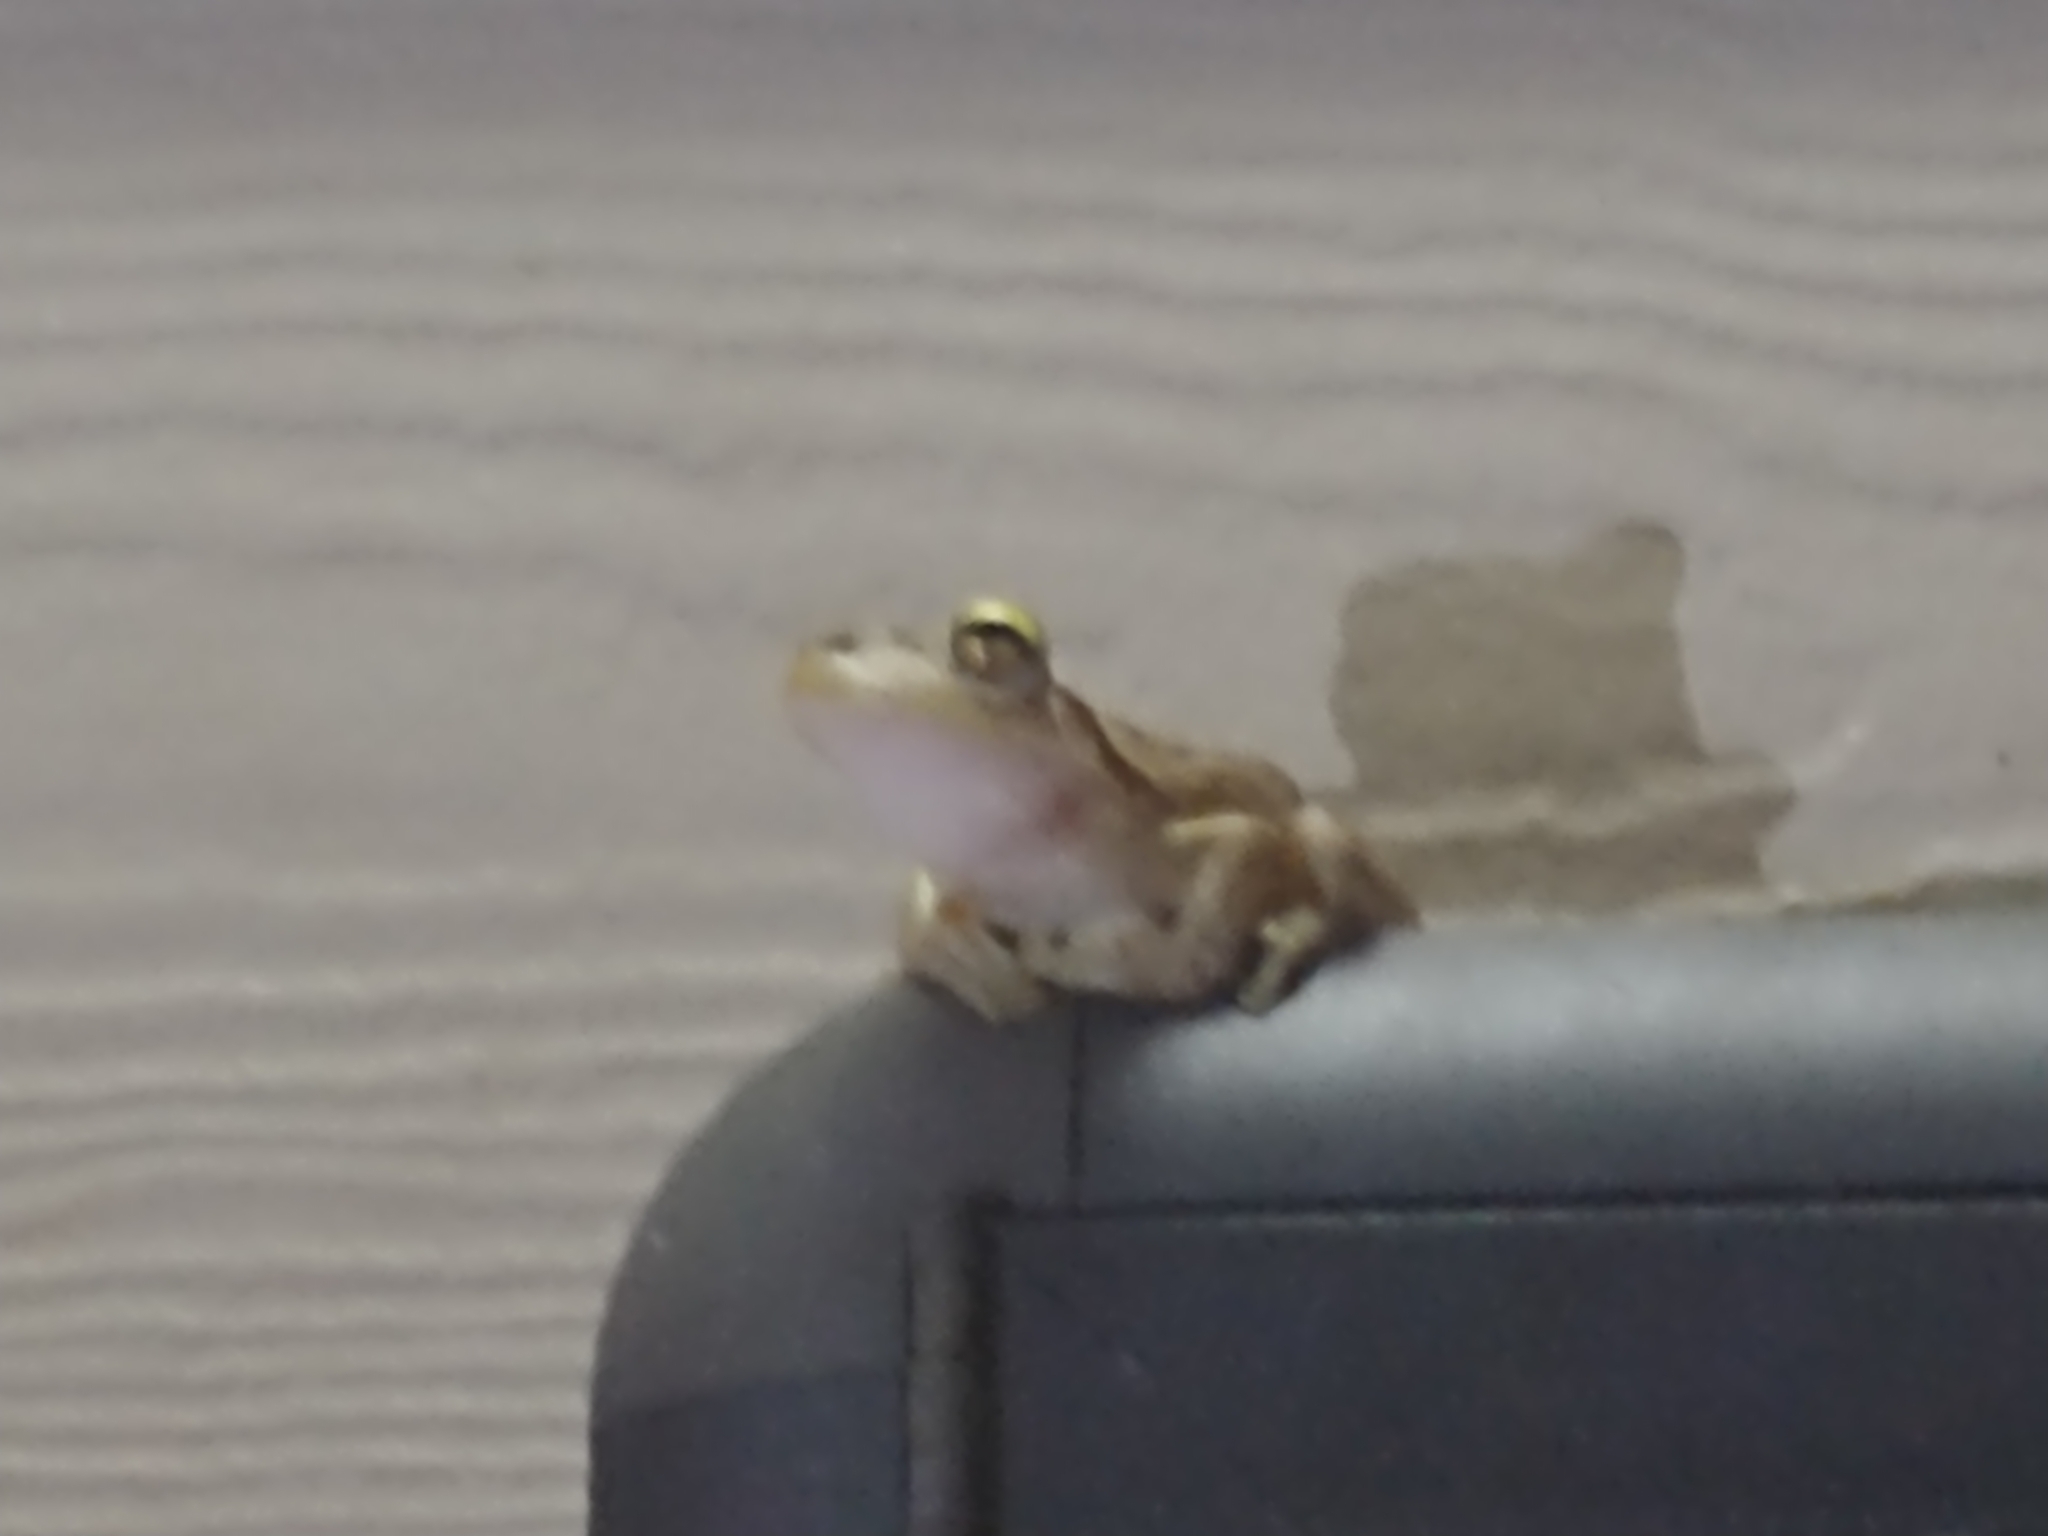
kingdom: Animalia
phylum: Chordata
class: Amphibia
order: Anura
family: Hylidae
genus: Osteopilus
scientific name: Osteopilus septentrionalis
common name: Cuban treefrog
